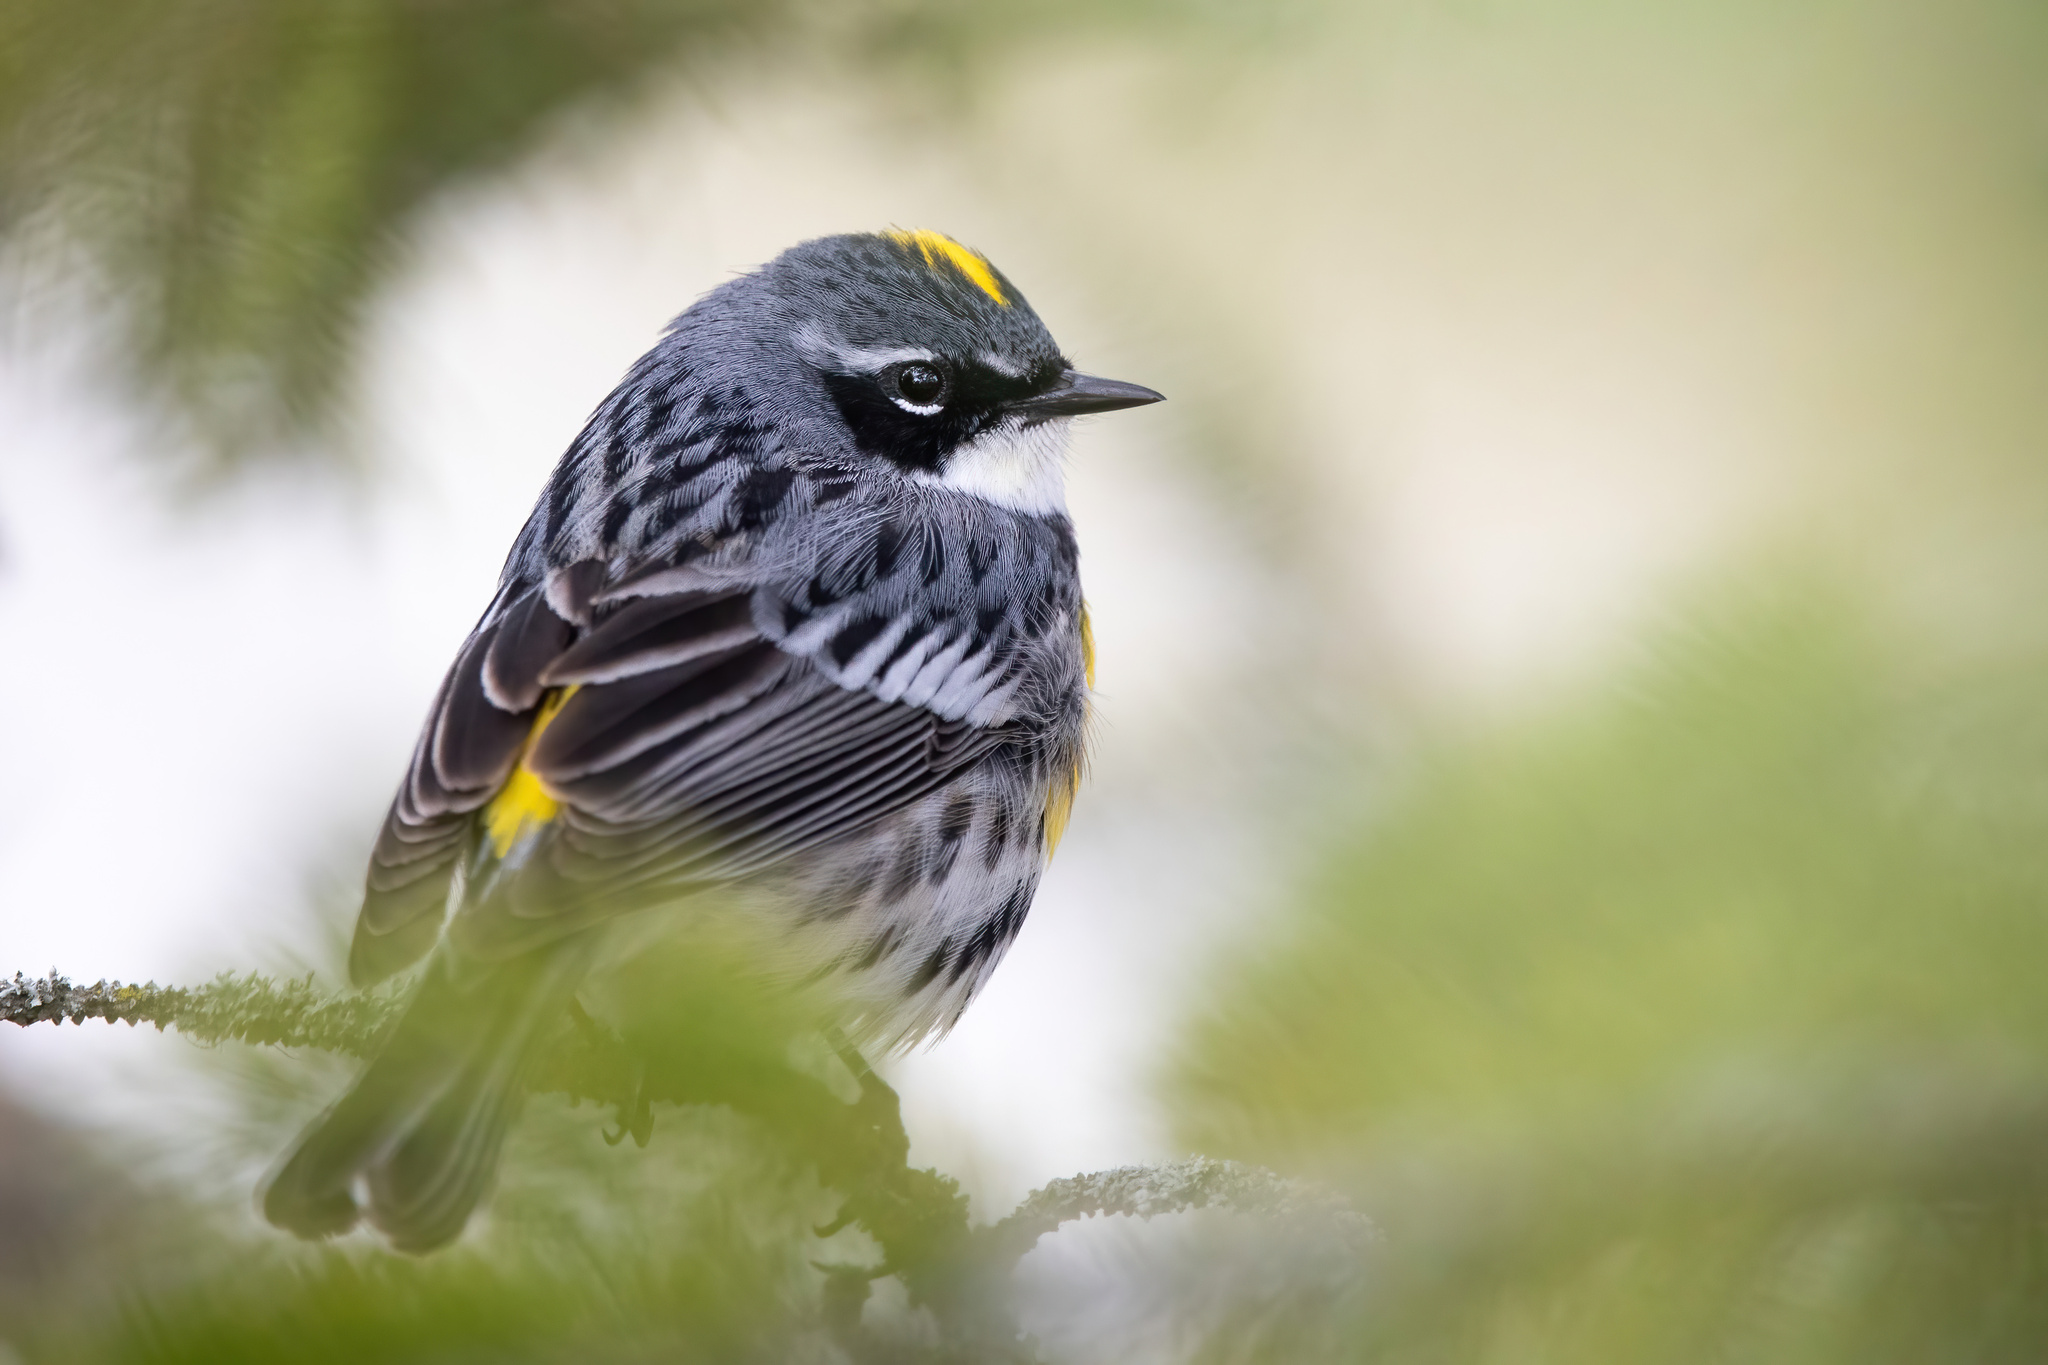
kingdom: Animalia
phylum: Chordata
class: Aves
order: Passeriformes
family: Parulidae
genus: Setophaga
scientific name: Setophaga coronata
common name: Myrtle warbler
